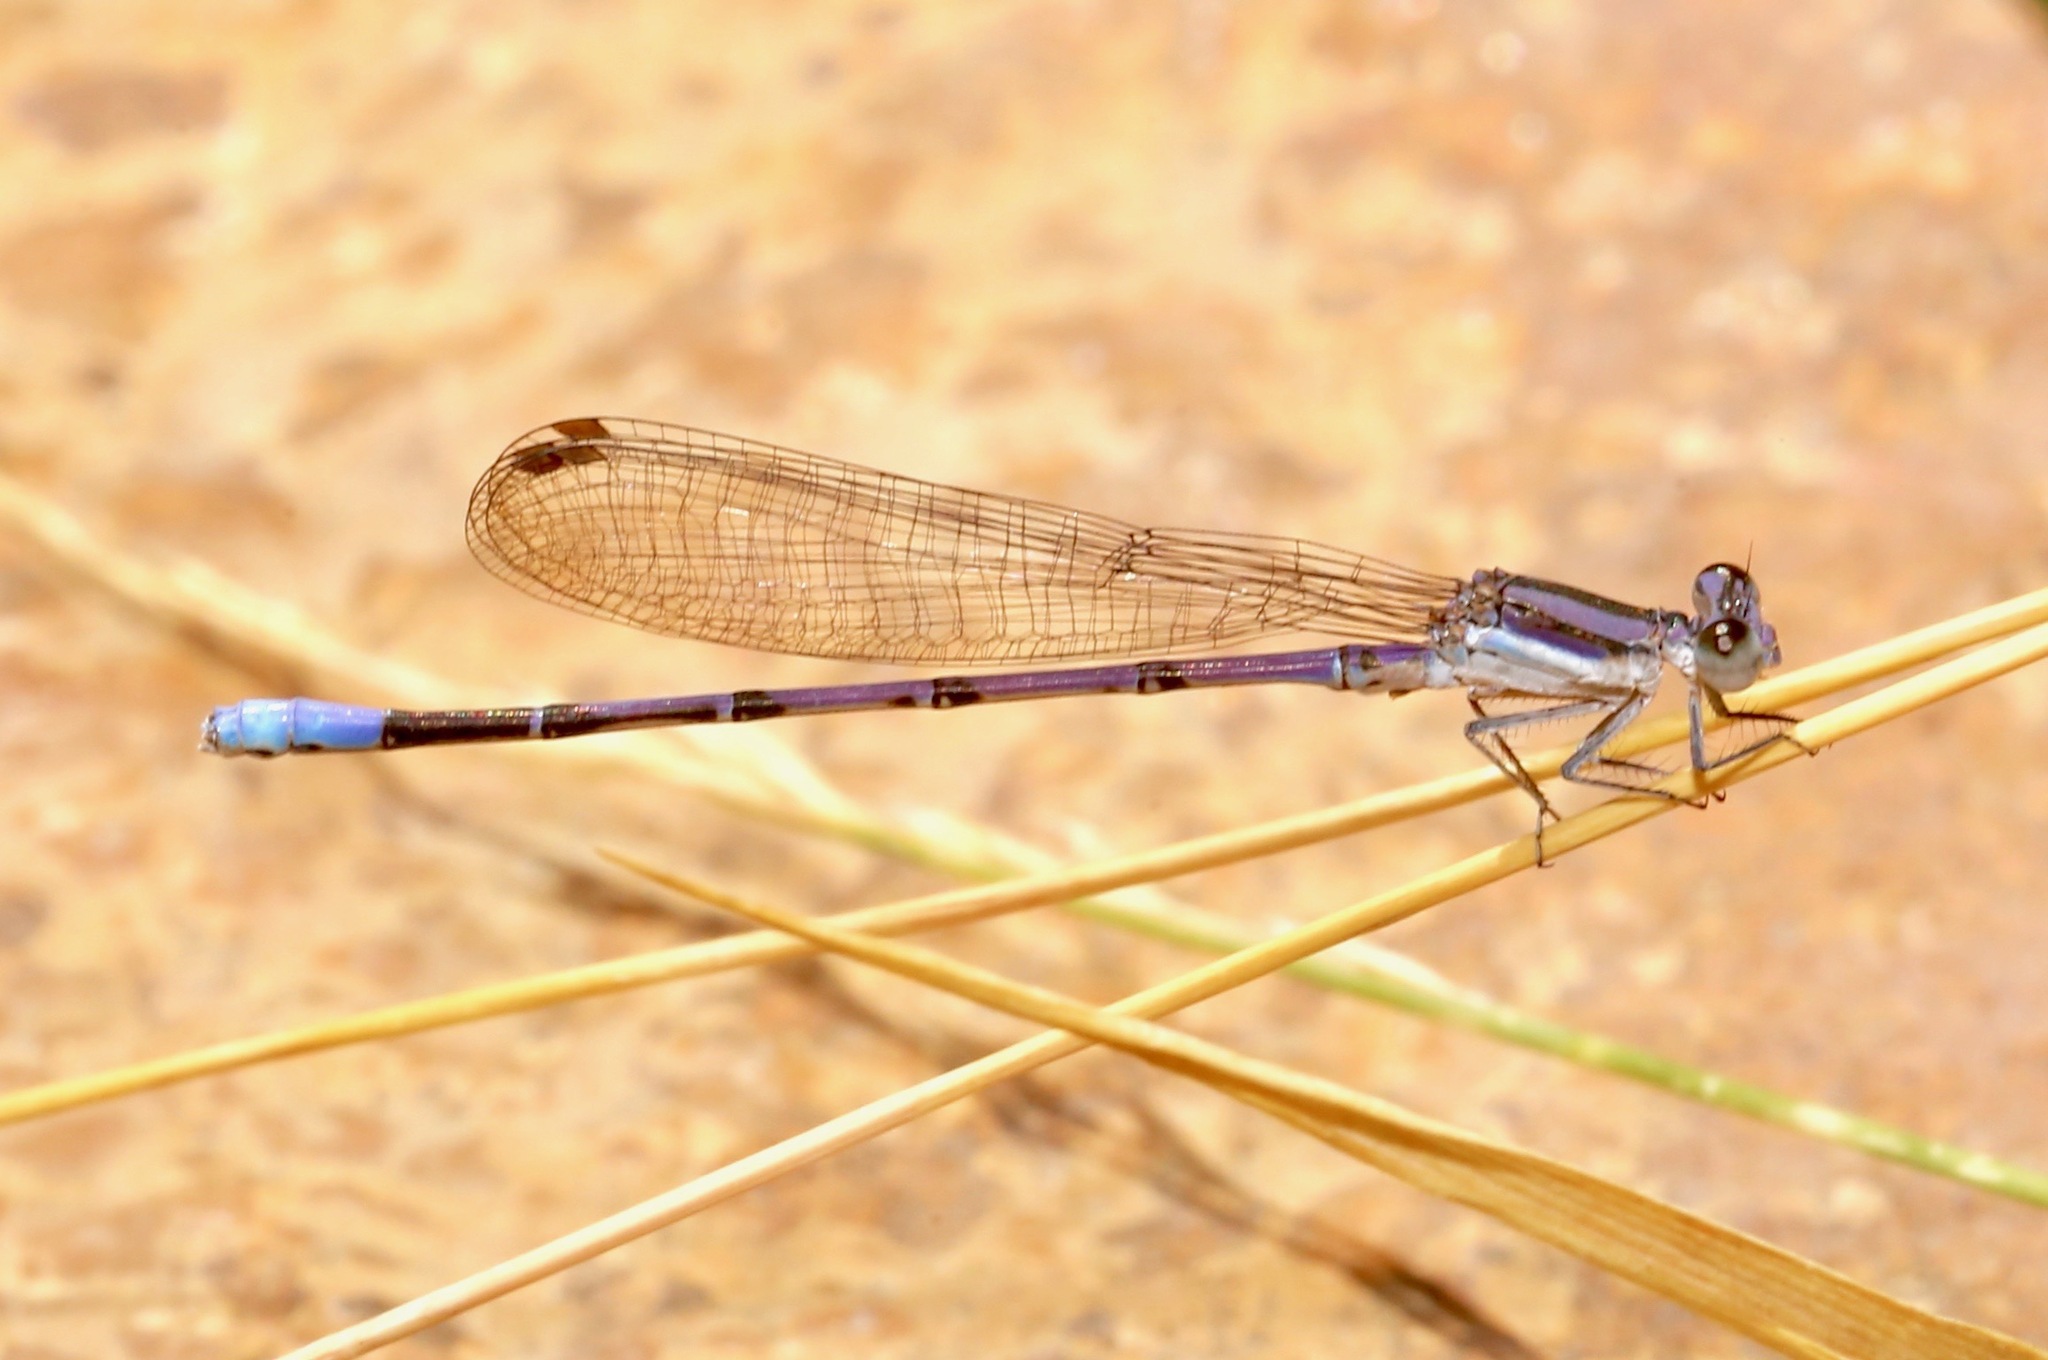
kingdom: Animalia
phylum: Arthropoda
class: Insecta
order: Odonata
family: Coenagrionidae
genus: Argia
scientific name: Argia hinei
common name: Lavender dancer
